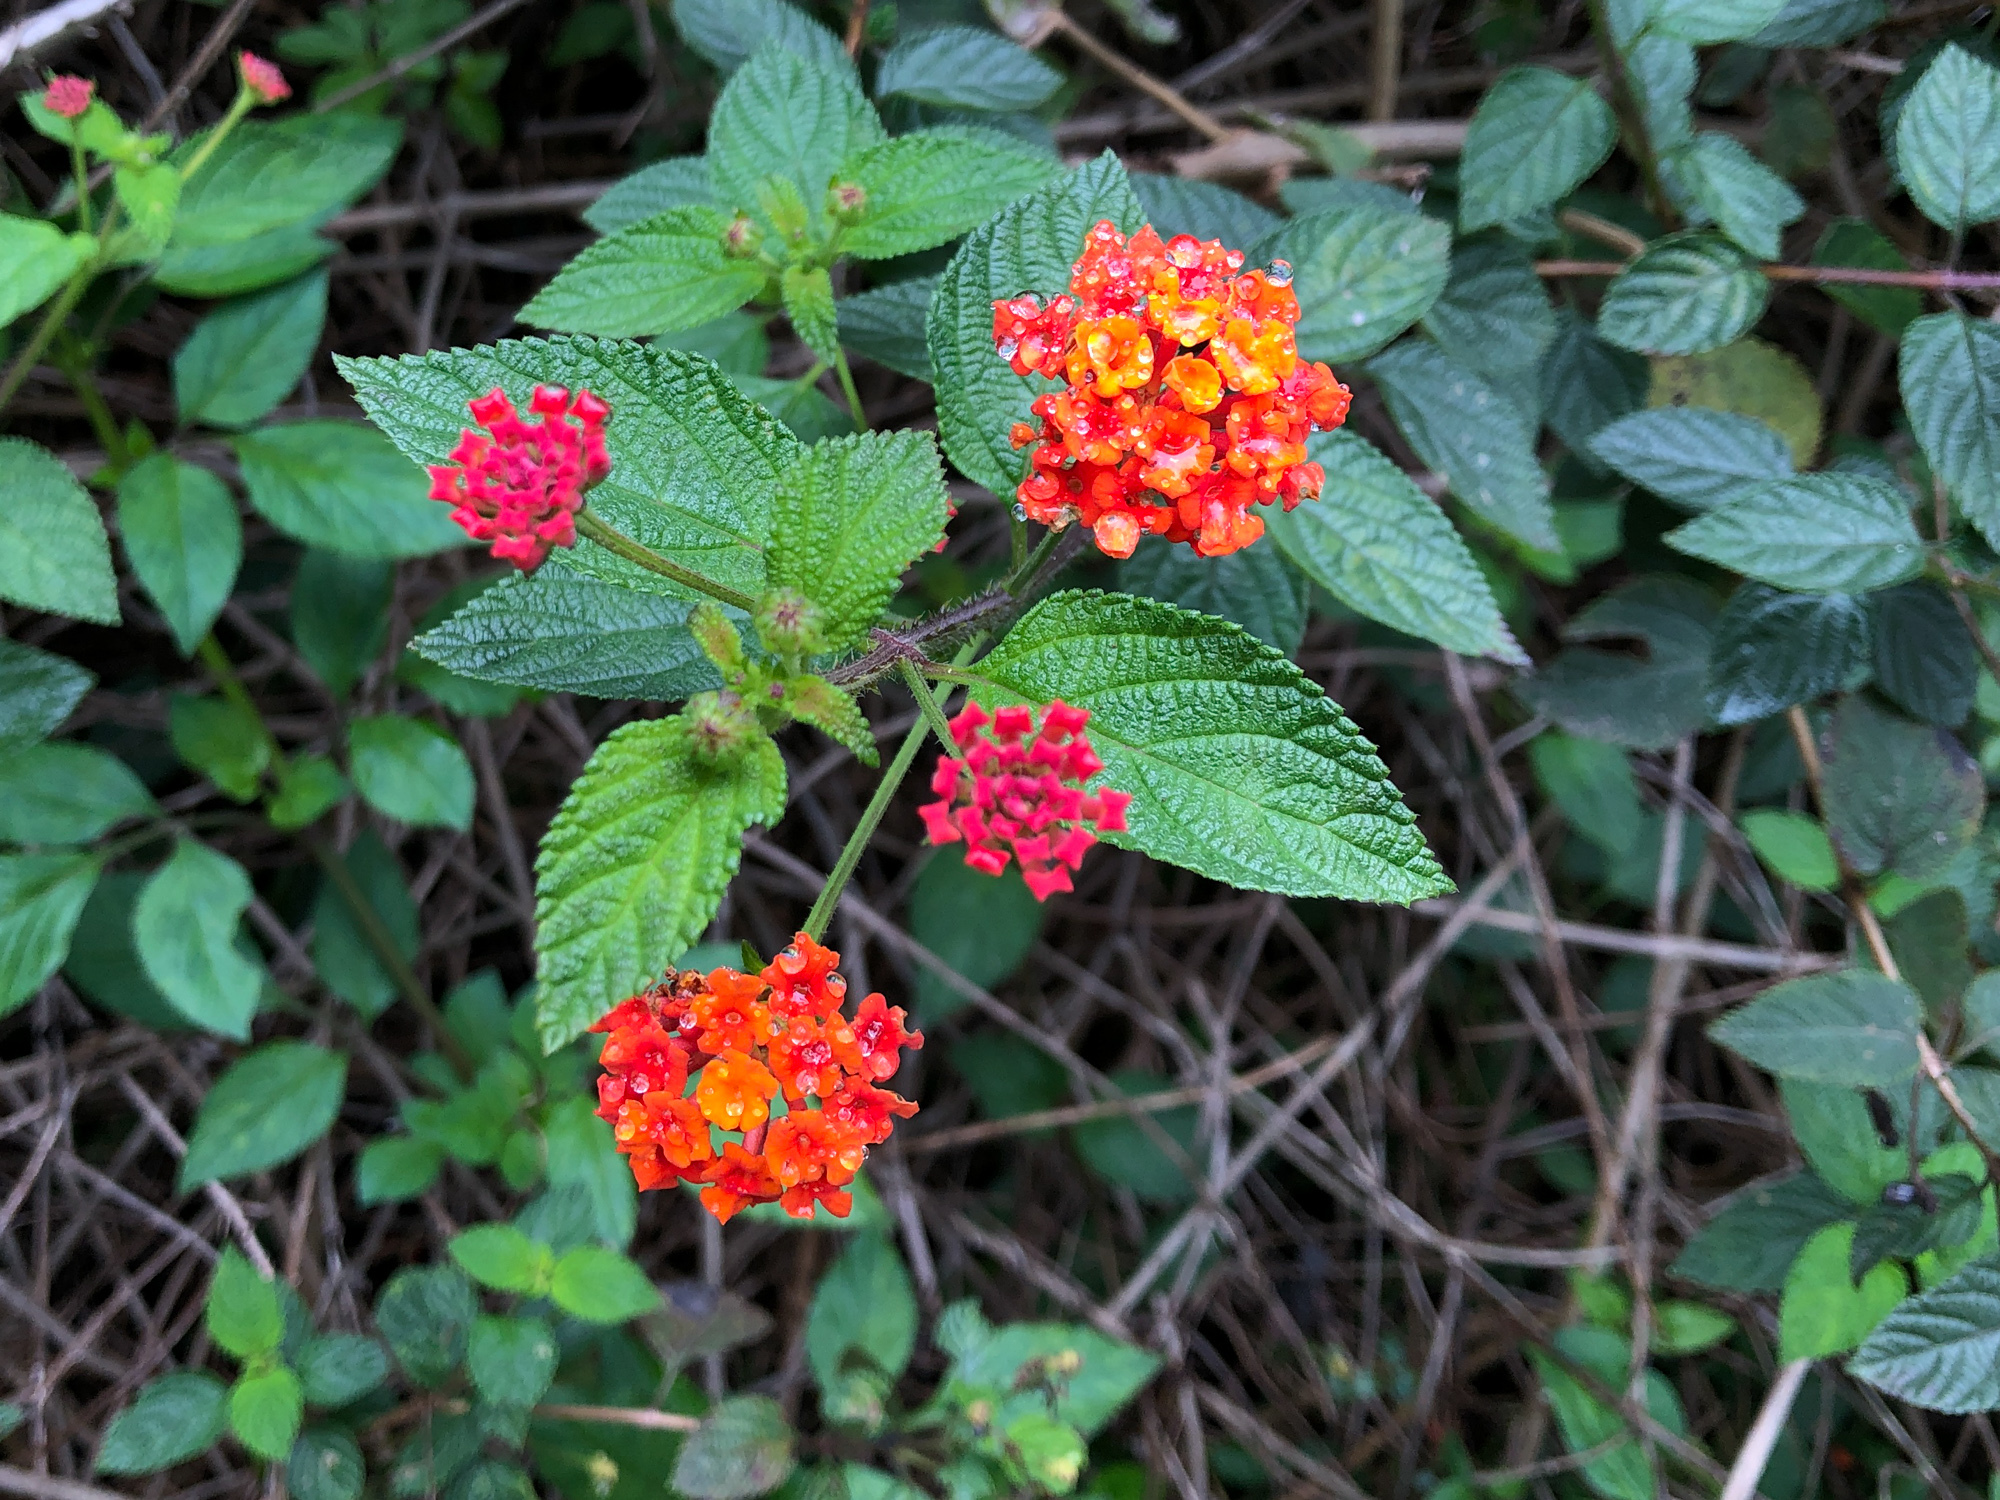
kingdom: Plantae
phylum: Tracheophyta
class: Magnoliopsida
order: Lamiales
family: Verbenaceae
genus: Lantana
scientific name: Lantana camara
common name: Lantana
